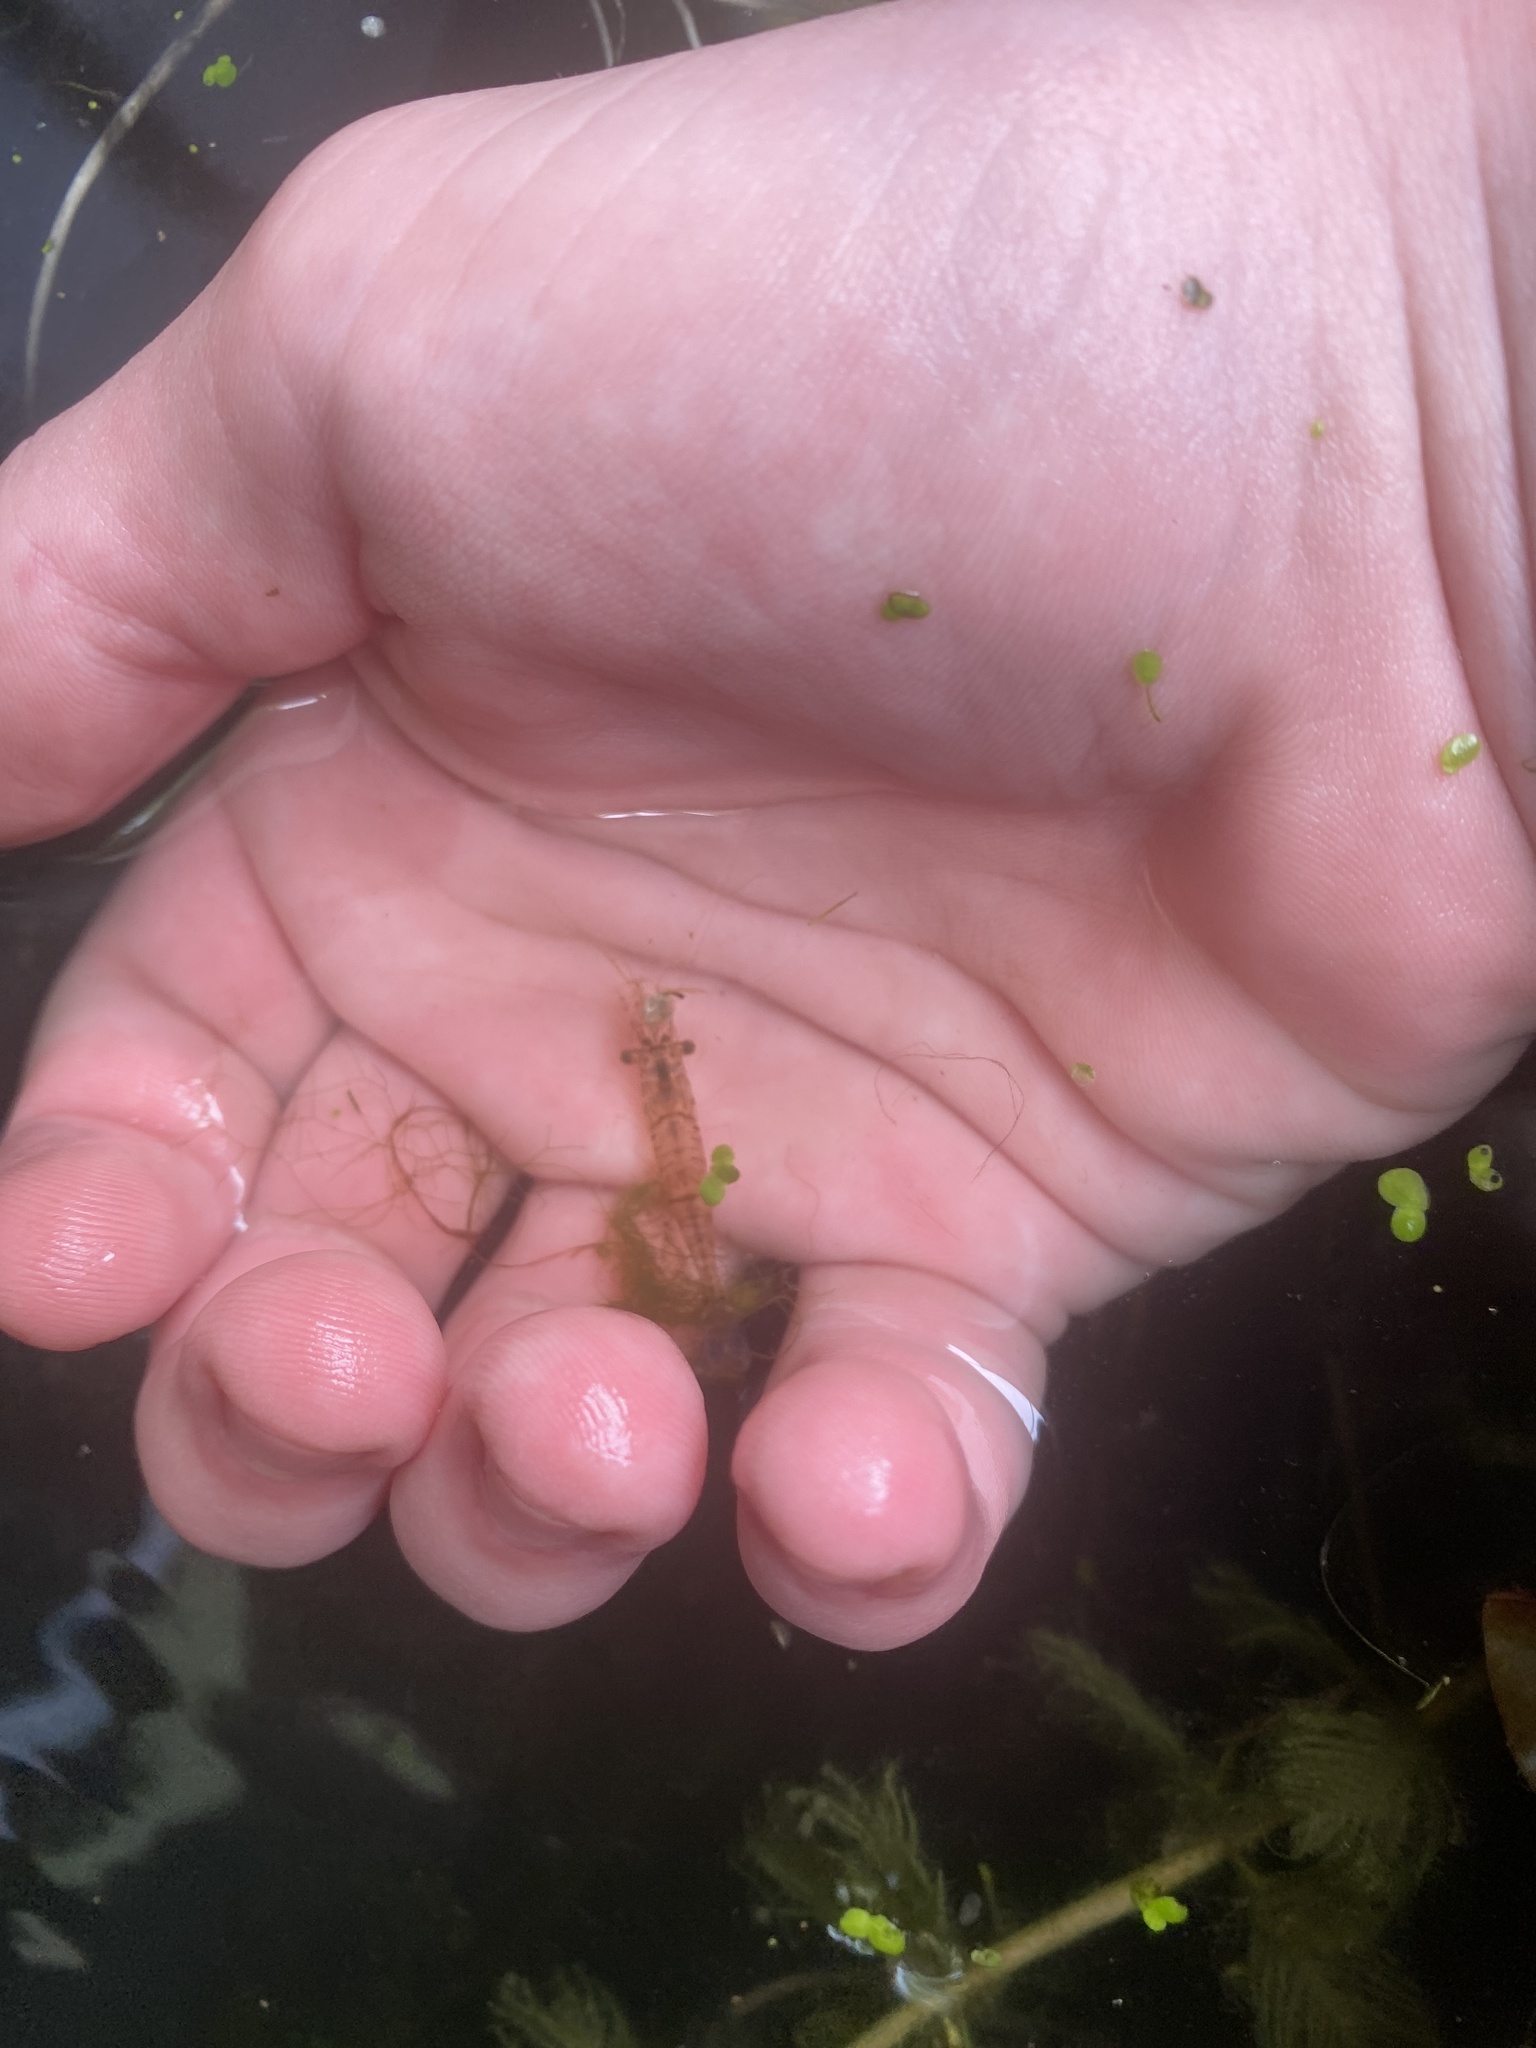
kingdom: Animalia
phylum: Arthropoda
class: Malacostraca
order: Decapoda
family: Palaemonidae
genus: Palaemon
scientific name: Palaemon kadiakensis
